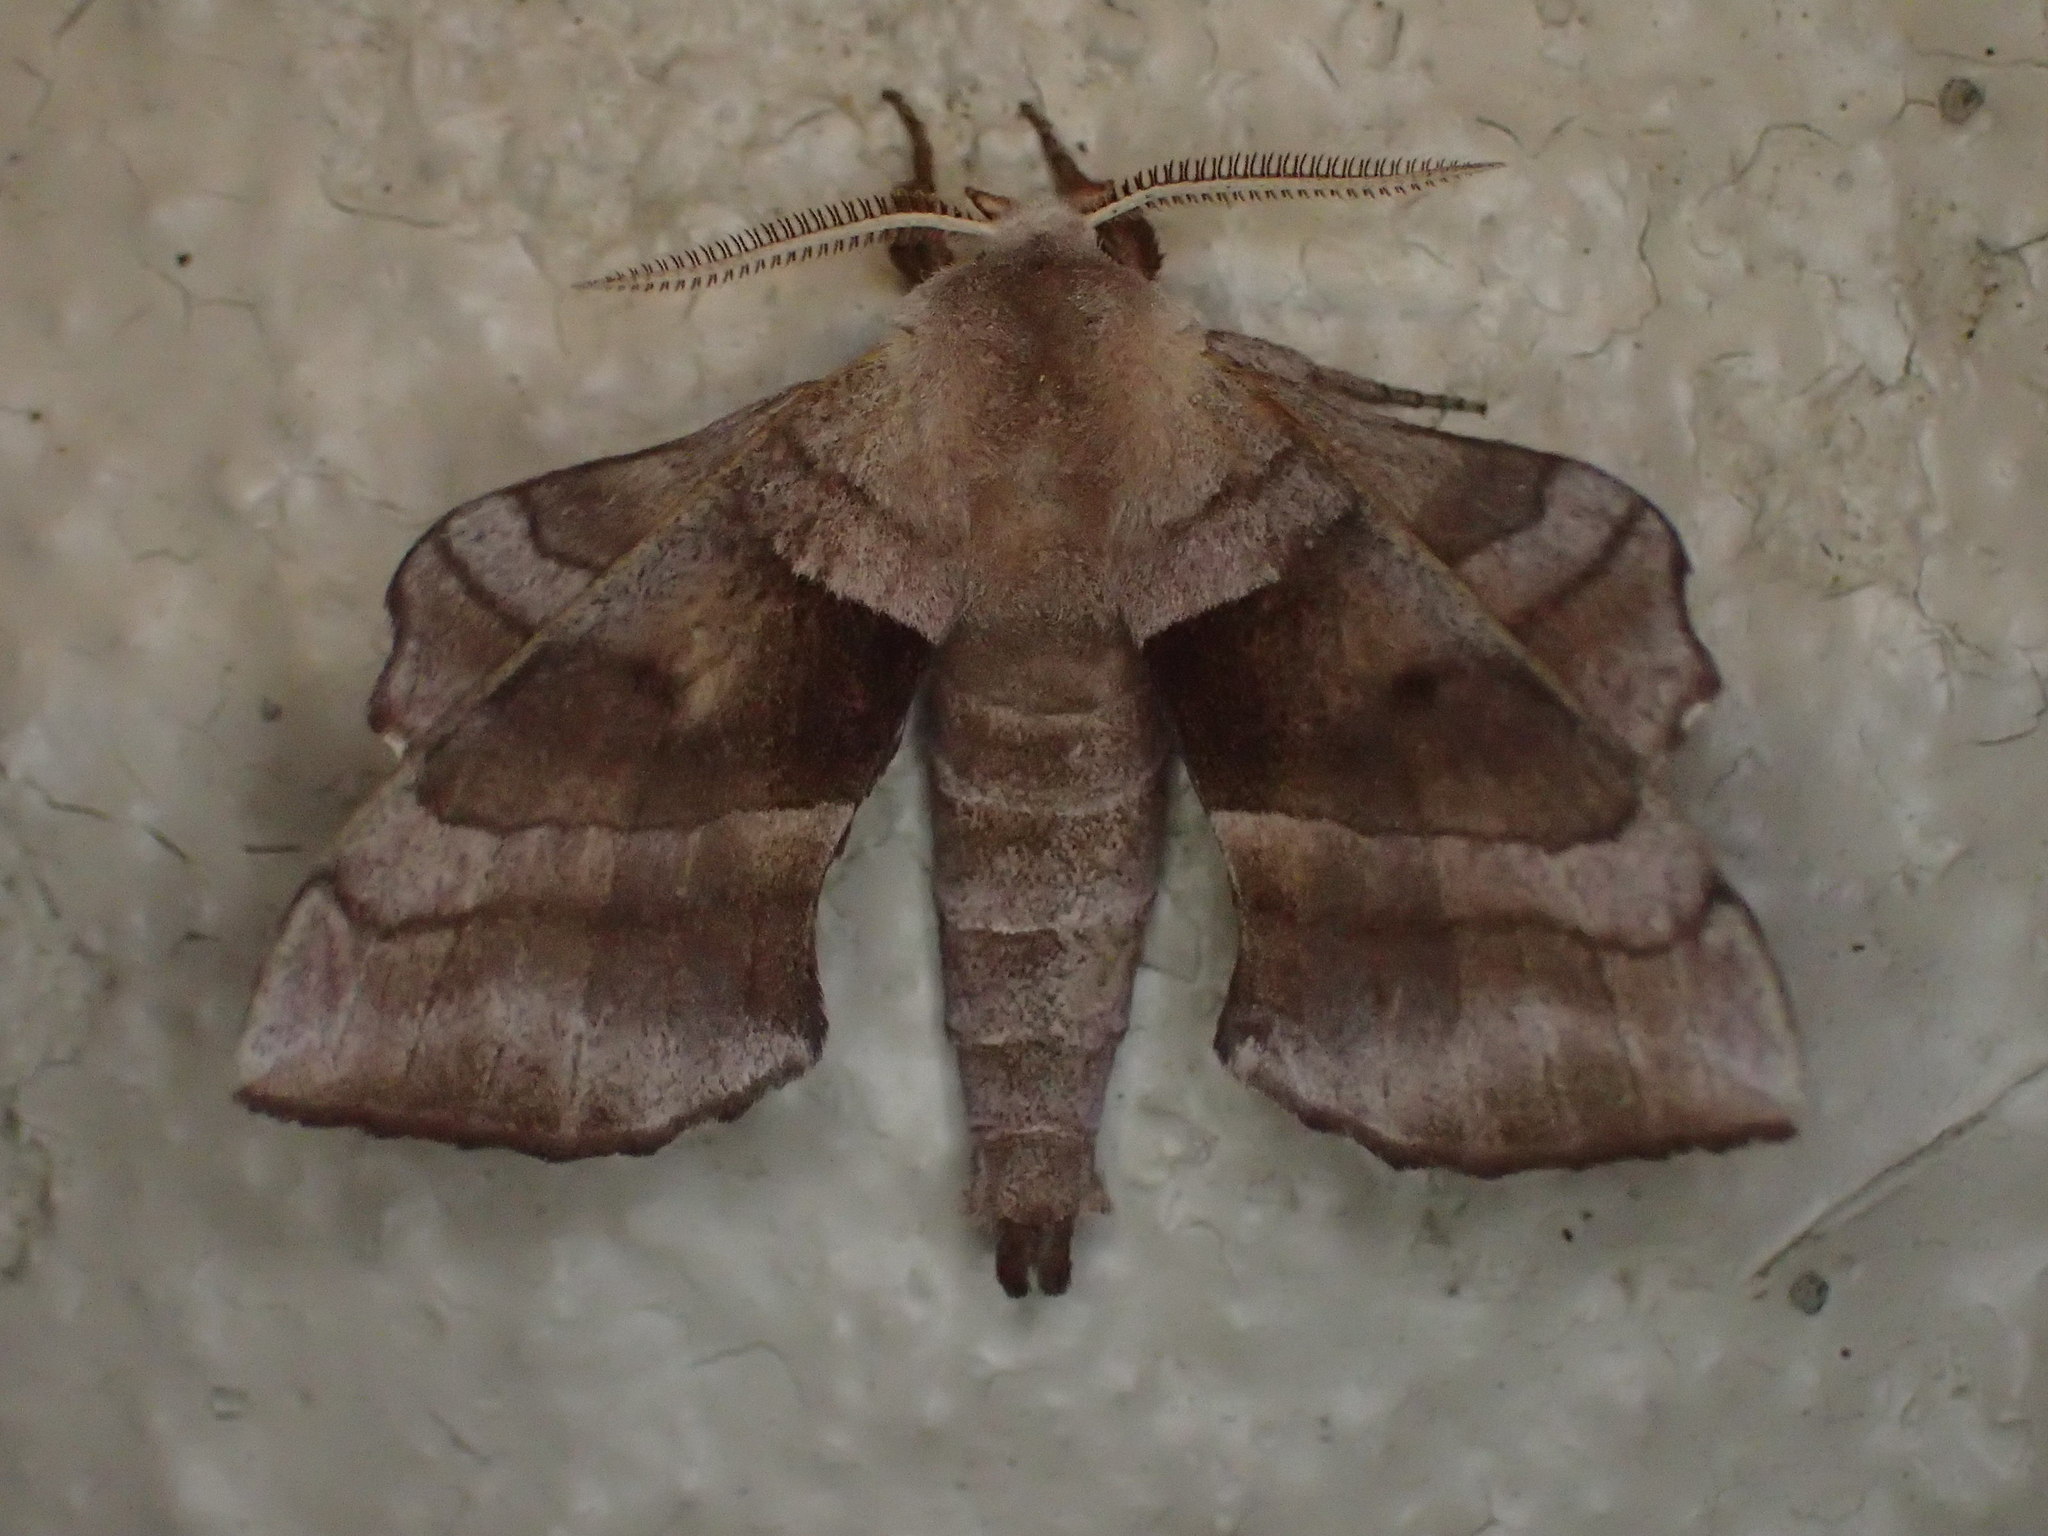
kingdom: Animalia
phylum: Arthropoda
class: Insecta
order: Lepidoptera
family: Sphingidae
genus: Amorpha
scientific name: Amorpha juglandis
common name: Walnut sphinx
